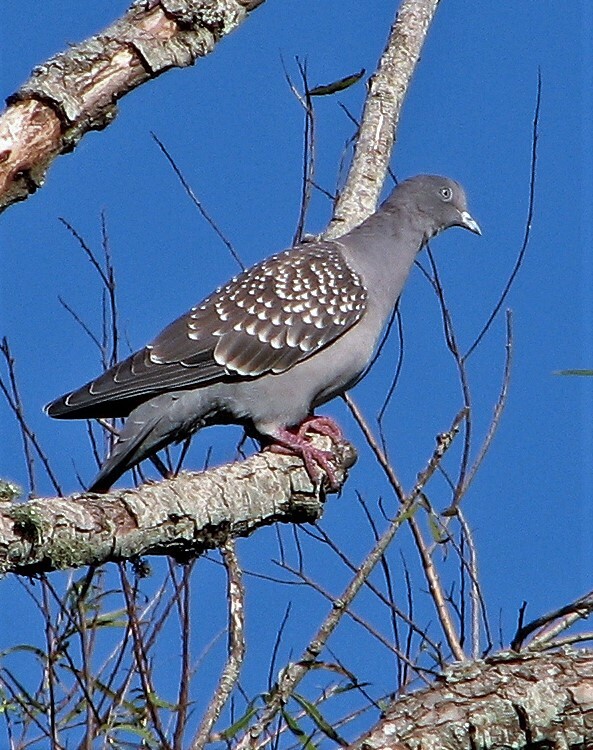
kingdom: Animalia
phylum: Chordata
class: Aves
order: Columbiformes
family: Columbidae
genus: Patagioenas
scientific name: Patagioenas maculosa
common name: Spot-winged pigeon
